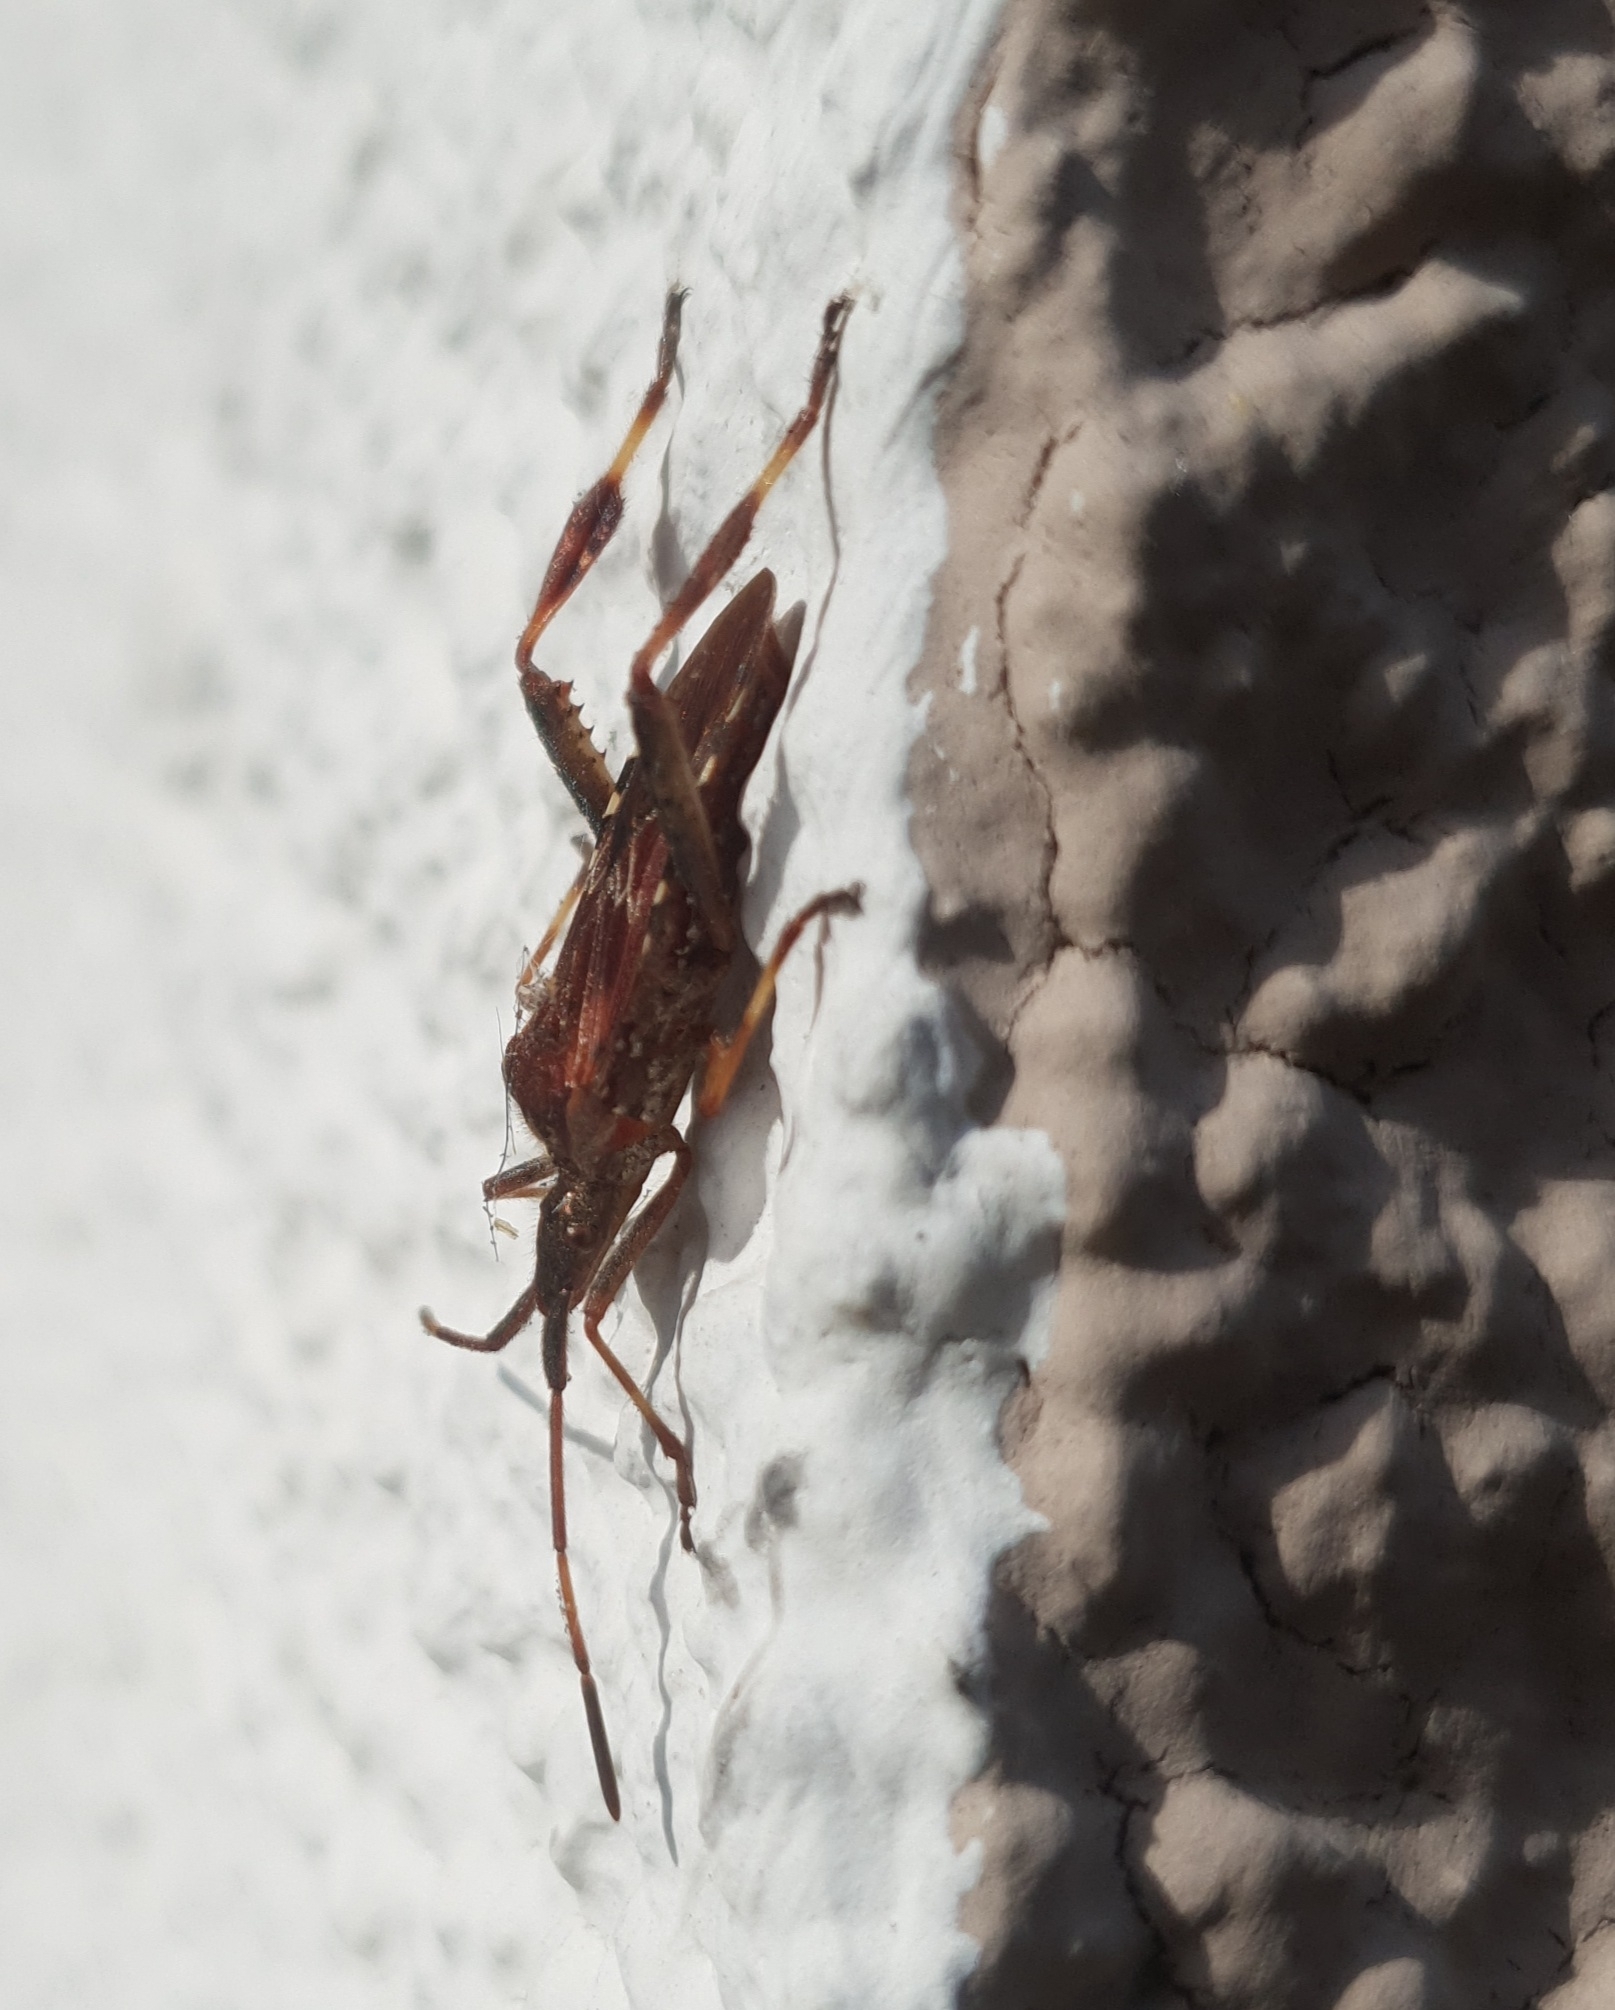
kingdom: Animalia
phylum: Arthropoda
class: Insecta
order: Hemiptera
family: Coreidae
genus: Leptoglossus
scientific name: Leptoglossus occidentalis
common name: Western conifer-seed bug
